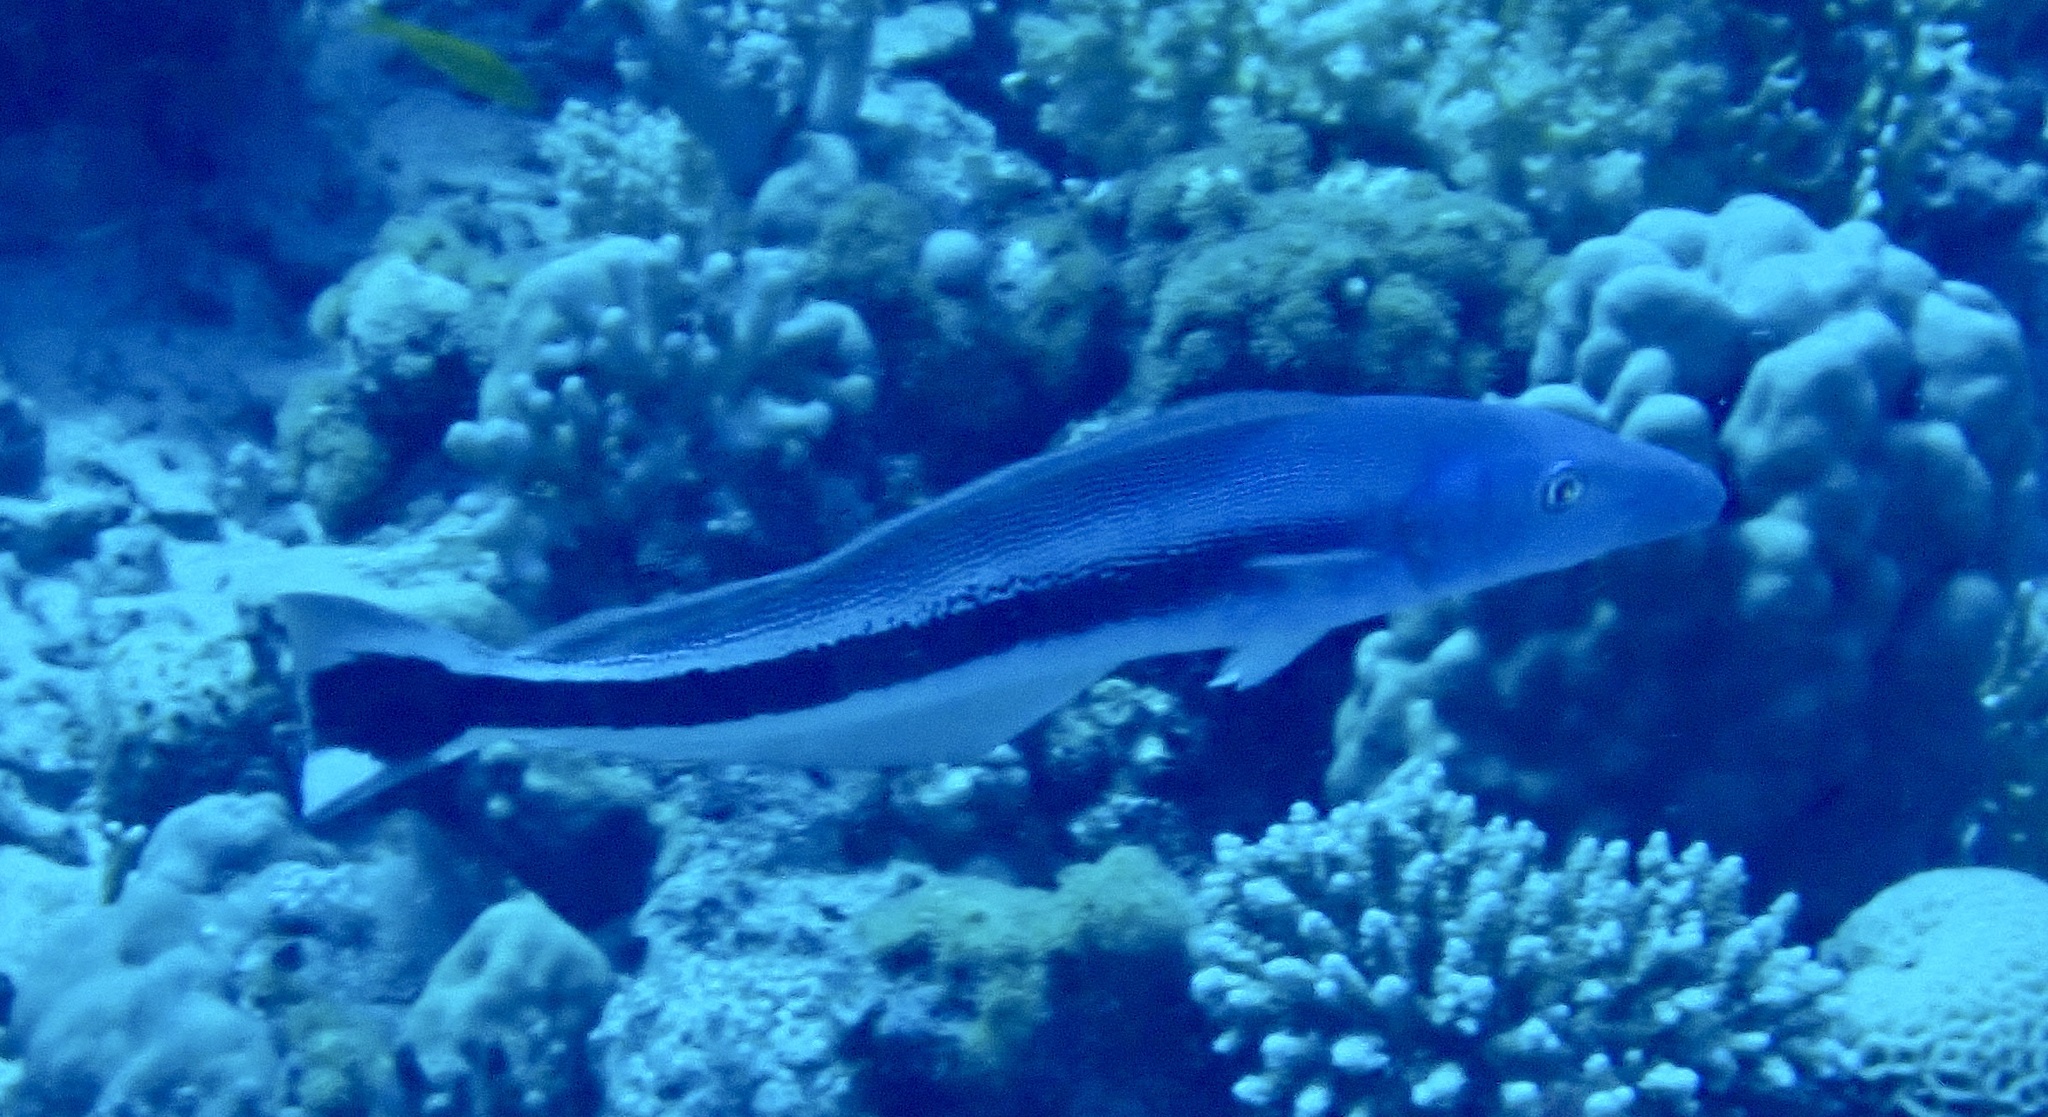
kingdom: Animalia
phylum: Chordata
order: Perciformes
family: Malacanthidae
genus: Malacanthus
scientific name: Malacanthus latovittatus
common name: Blue blanquillo
